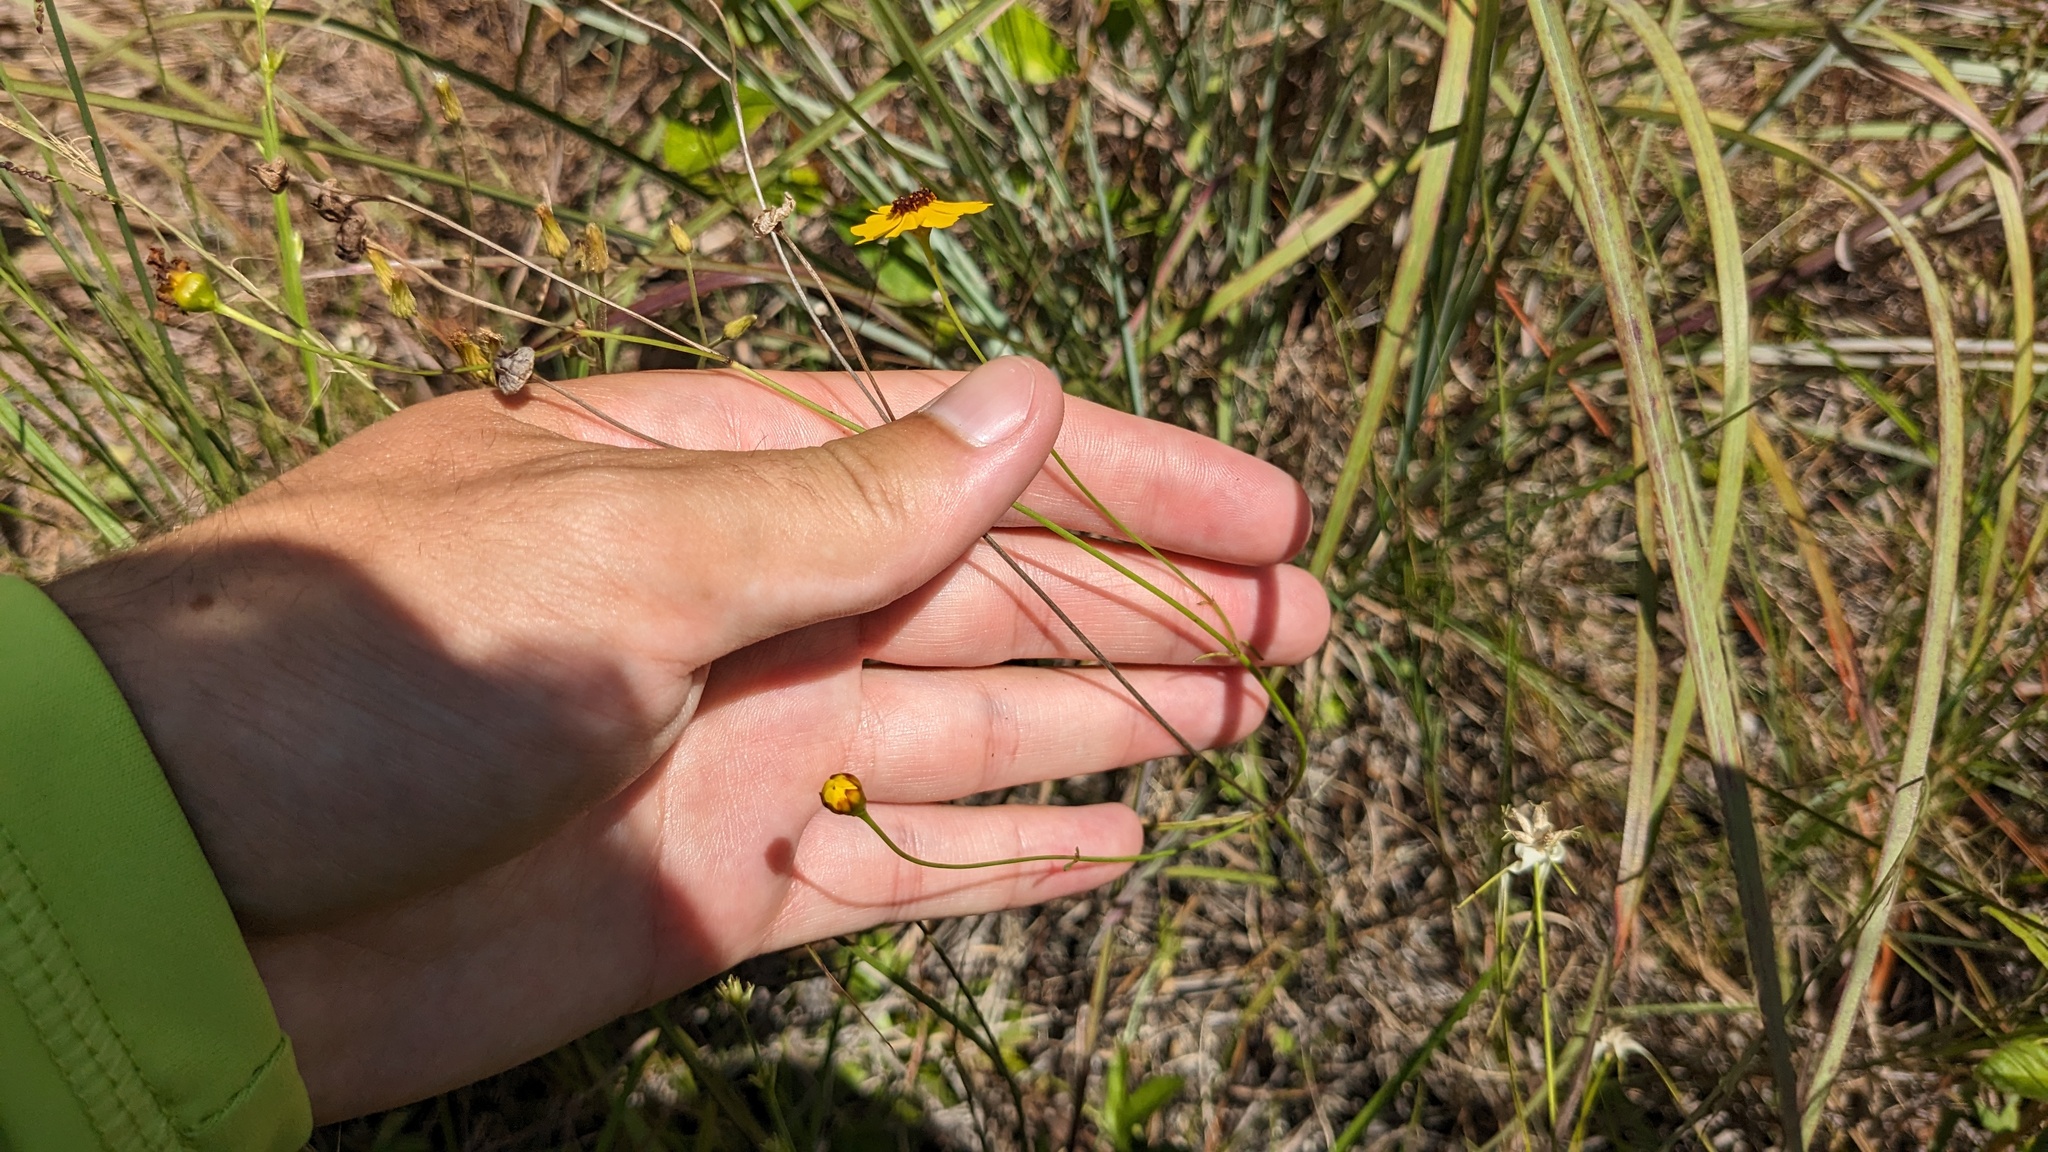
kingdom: Plantae
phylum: Tracheophyta
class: Magnoliopsida
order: Asterales
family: Asteraceae
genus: Coreopsis
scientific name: Coreopsis leavenworthii
